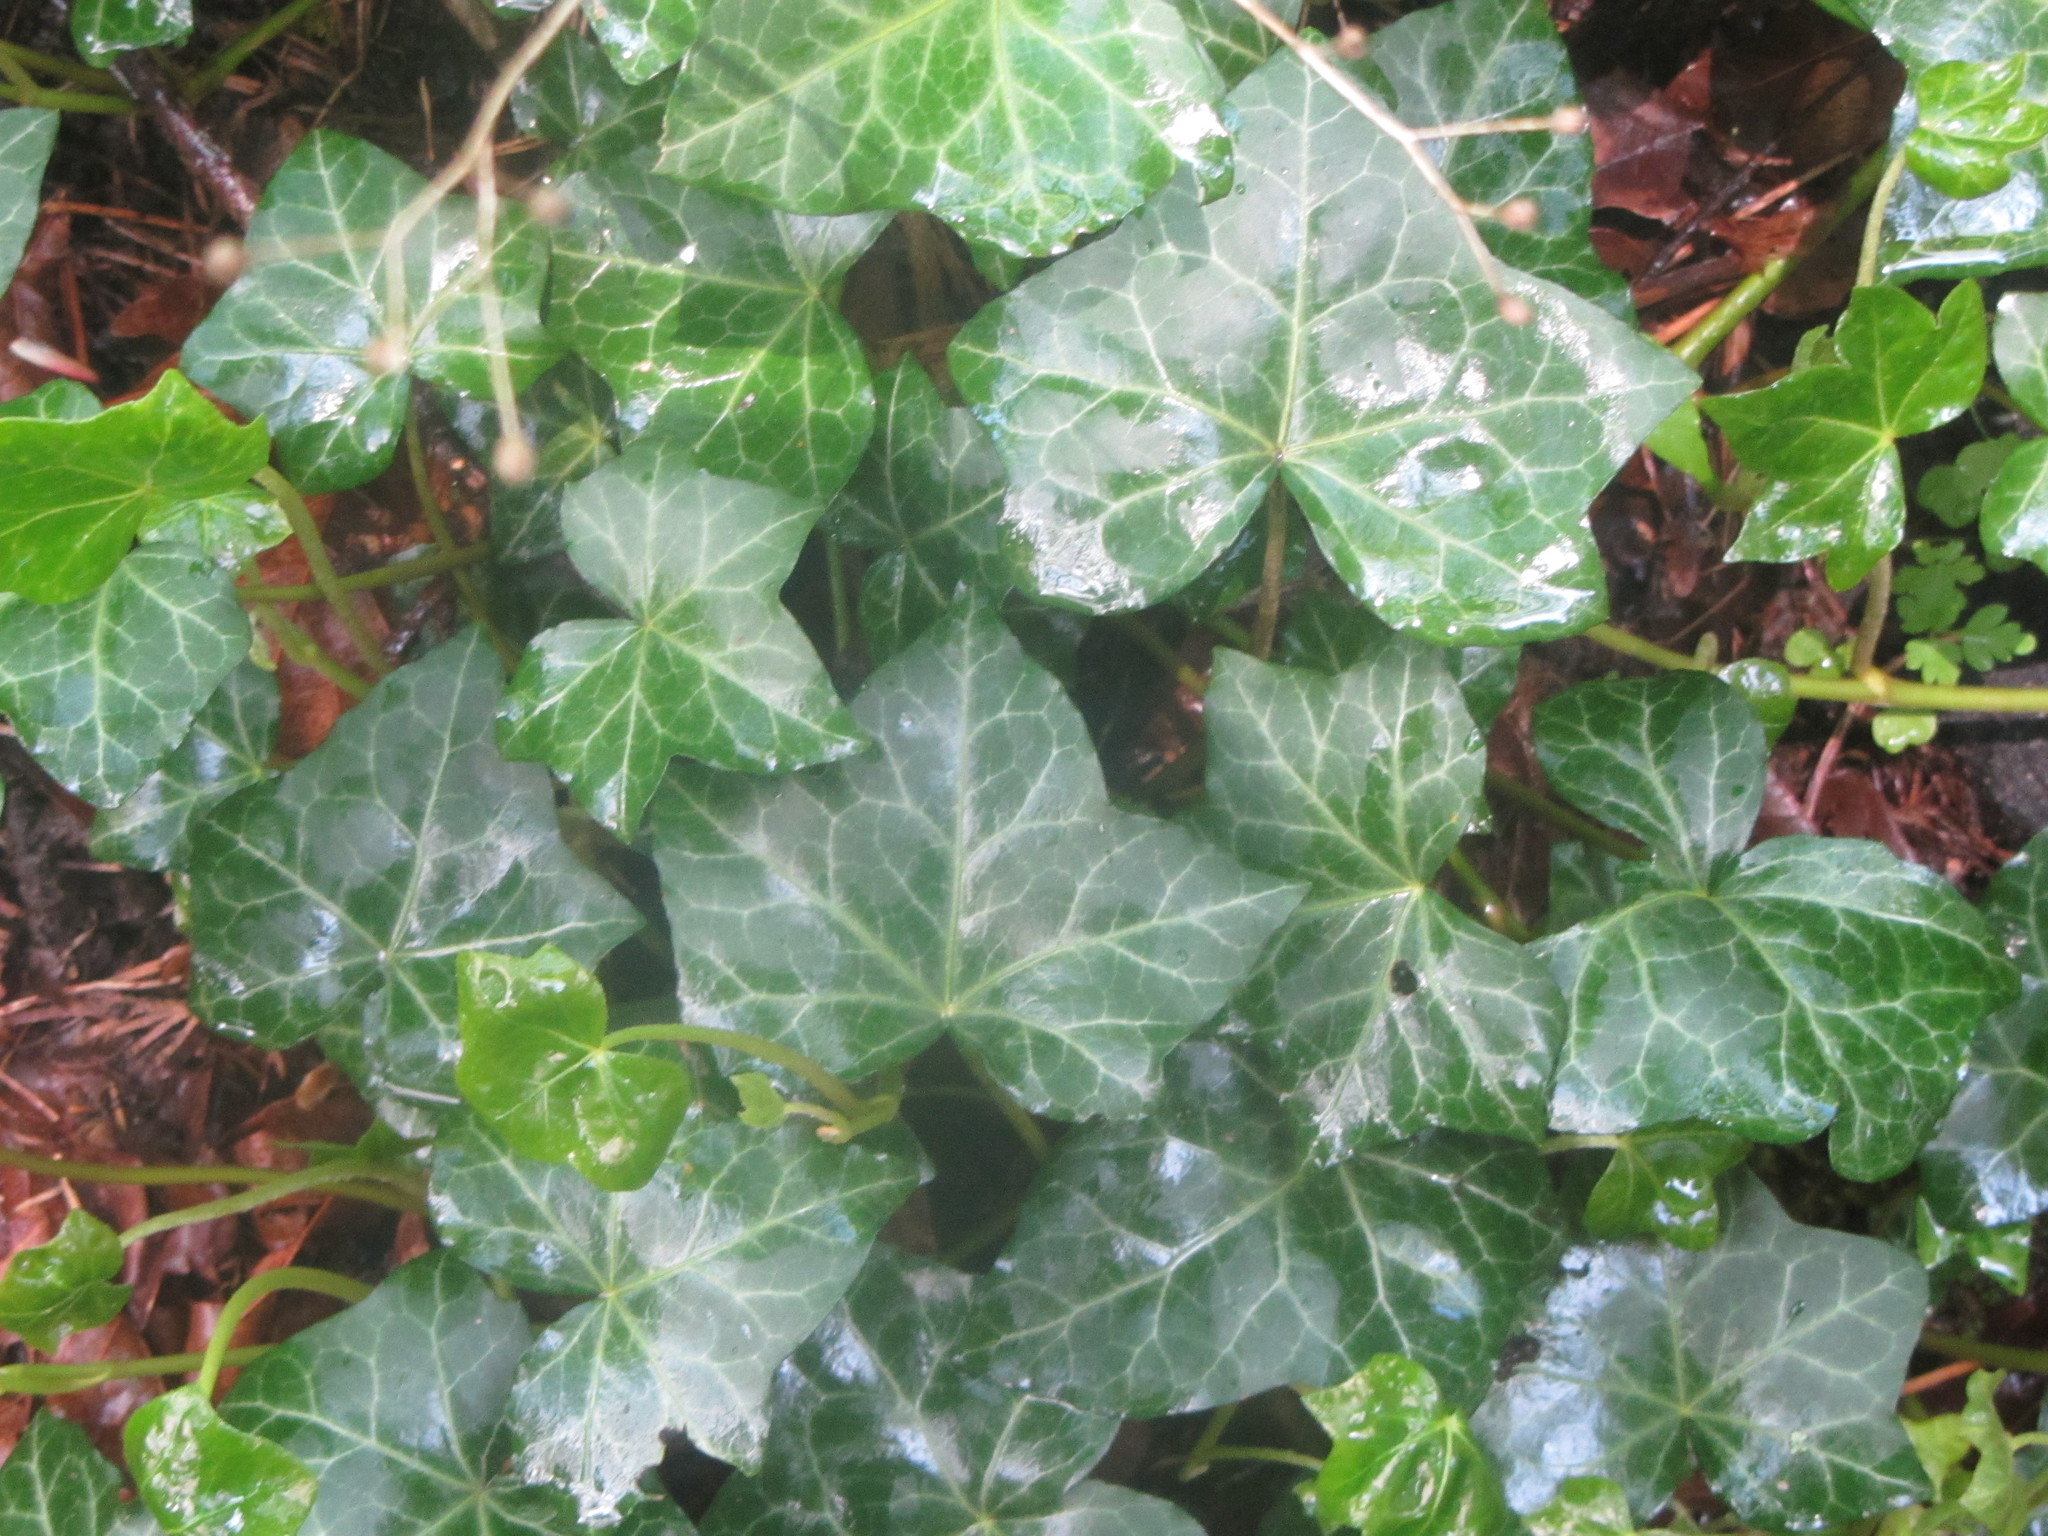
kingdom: Plantae
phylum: Tracheophyta
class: Magnoliopsida
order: Apiales
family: Araliaceae
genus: Hedera
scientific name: Hedera helix
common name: Ivy
